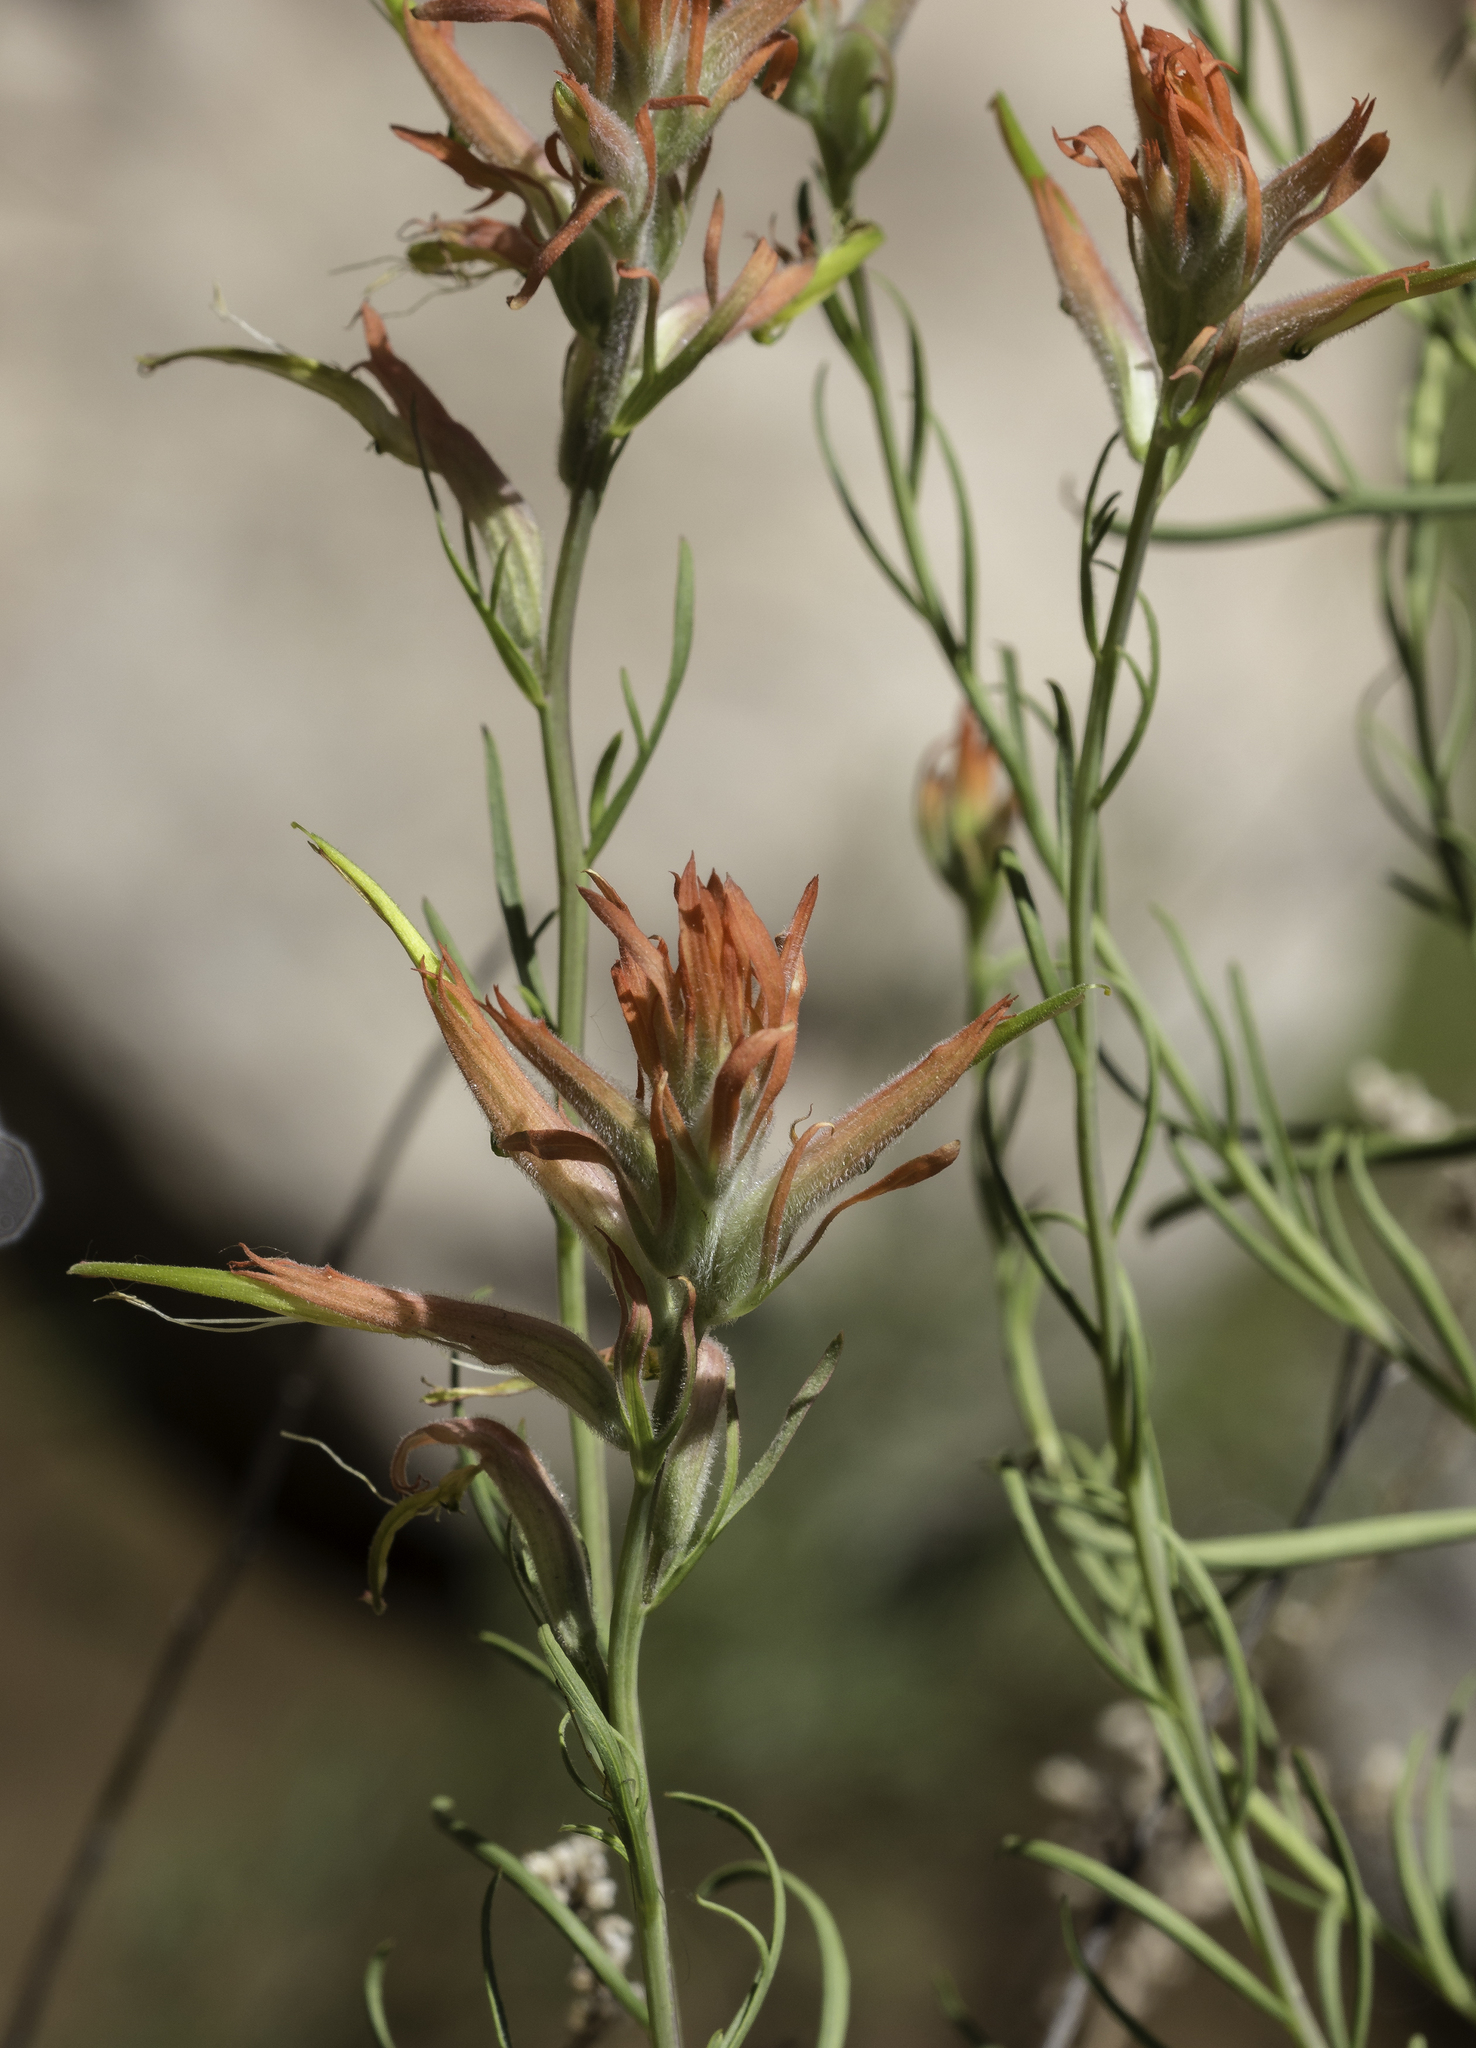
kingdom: Plantae
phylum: Tracheophyta
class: Magnoliopsida
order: Lamiales
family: Orobanchaceae
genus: Castilleja
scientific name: Castilleja linariifolia
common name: Wyoming paintbrush
